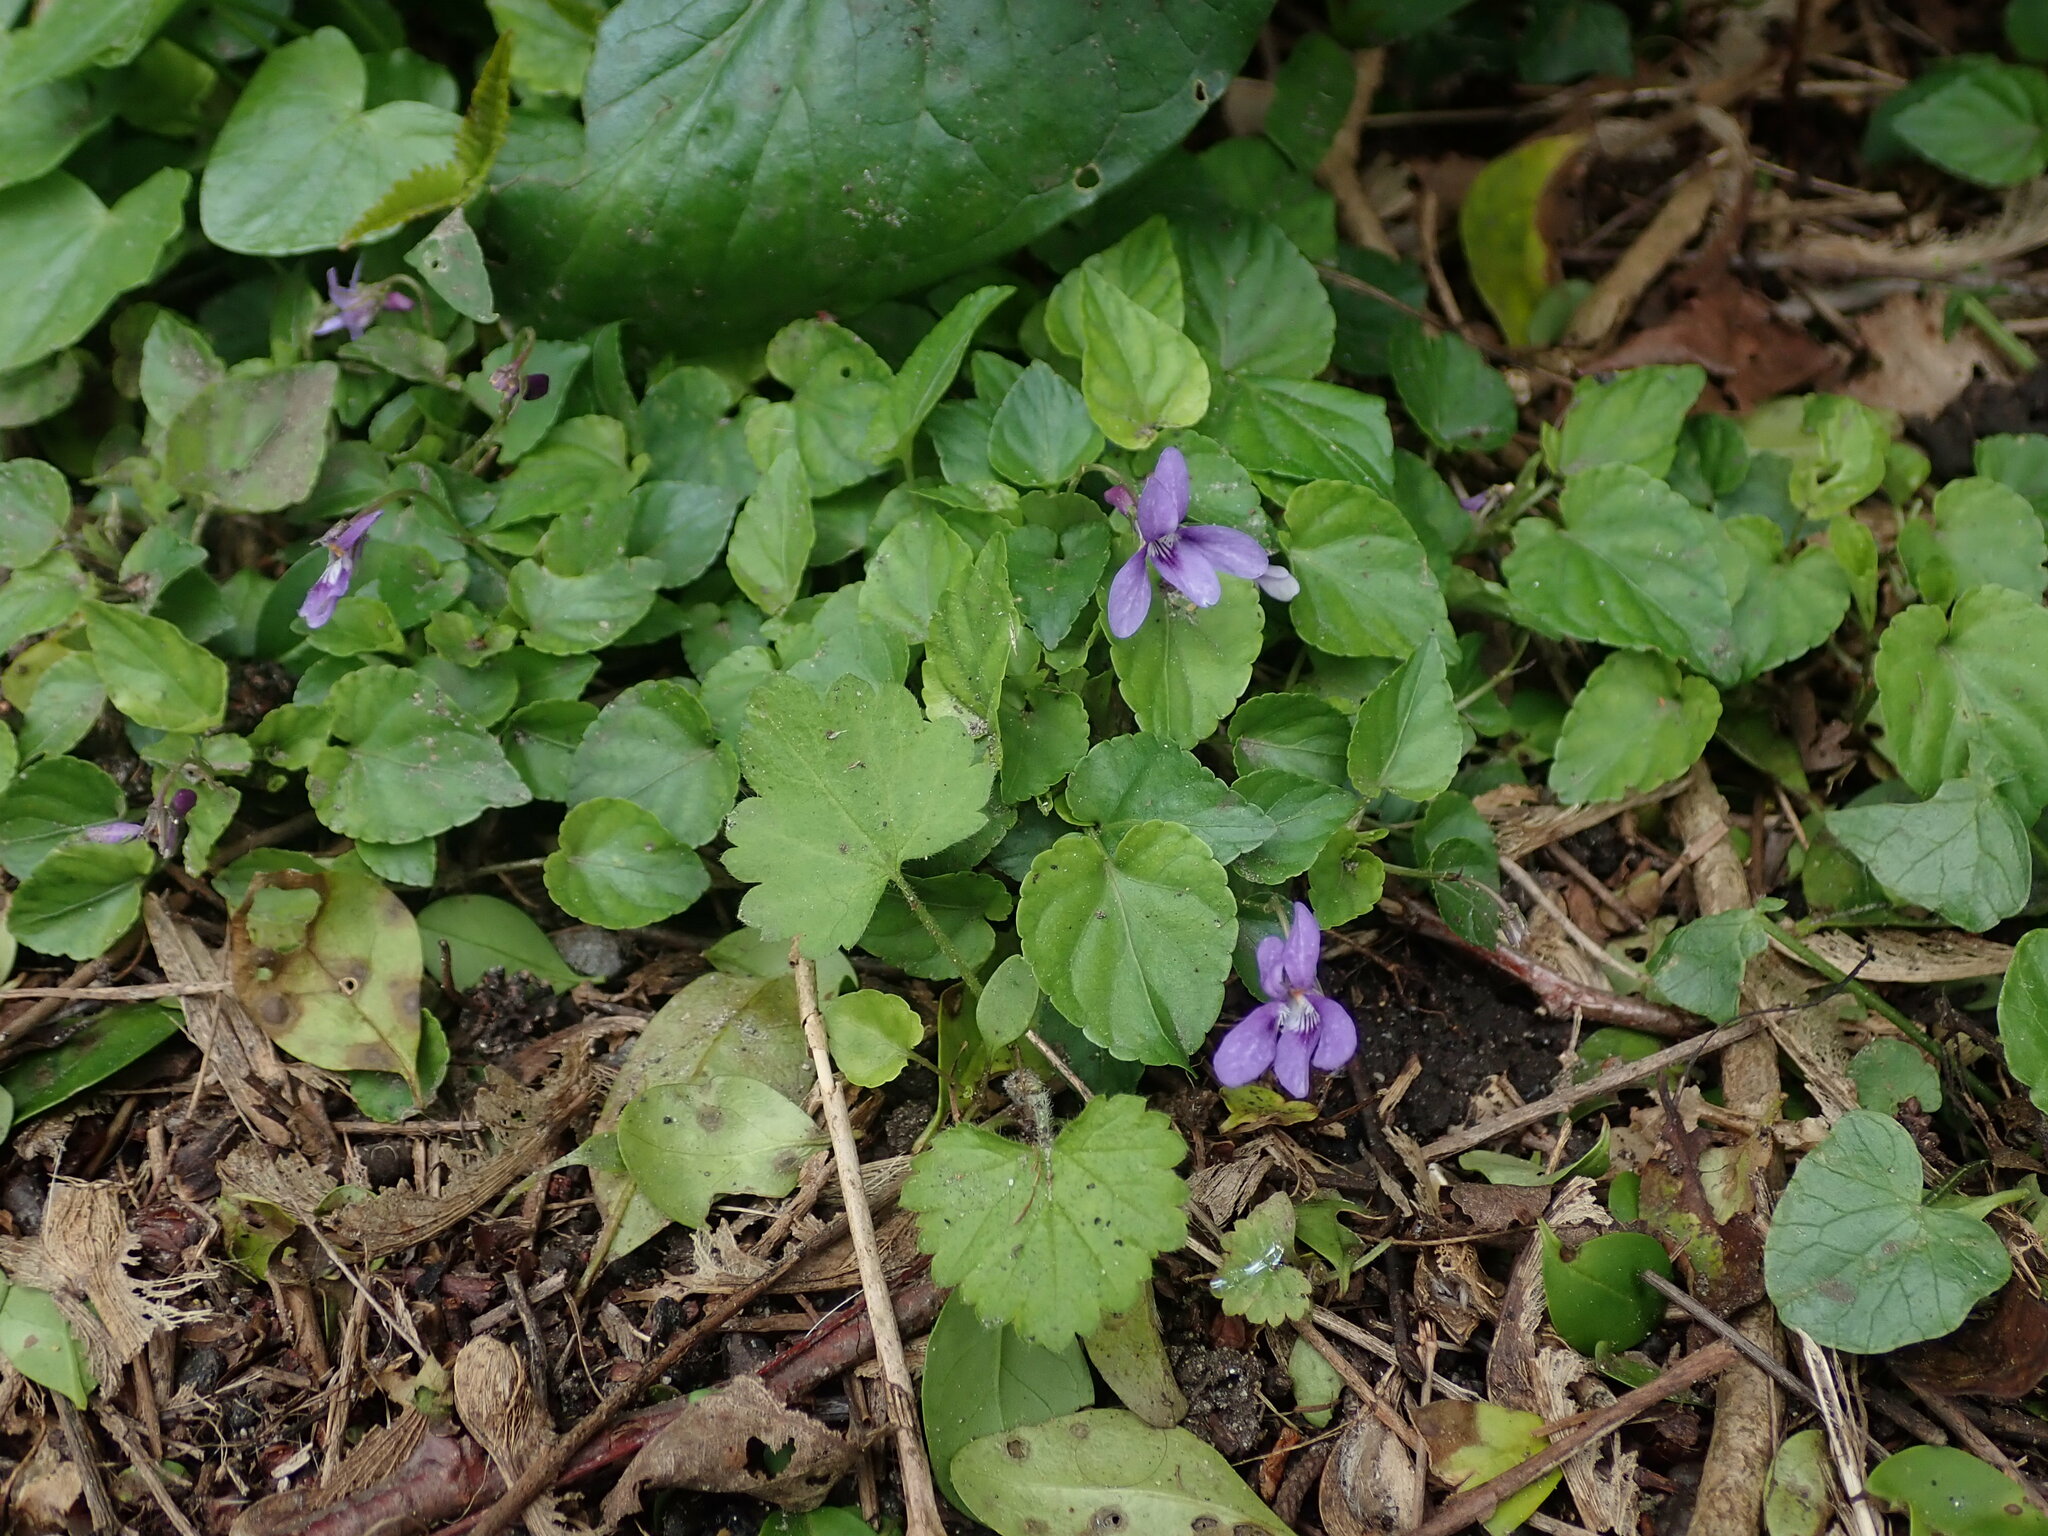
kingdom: Plantae
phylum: Tracheophyta
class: Magnoliopsida
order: Malpighiales
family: Violaceae
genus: Viola
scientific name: Viola reichenbachiana
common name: Early dog-violet
